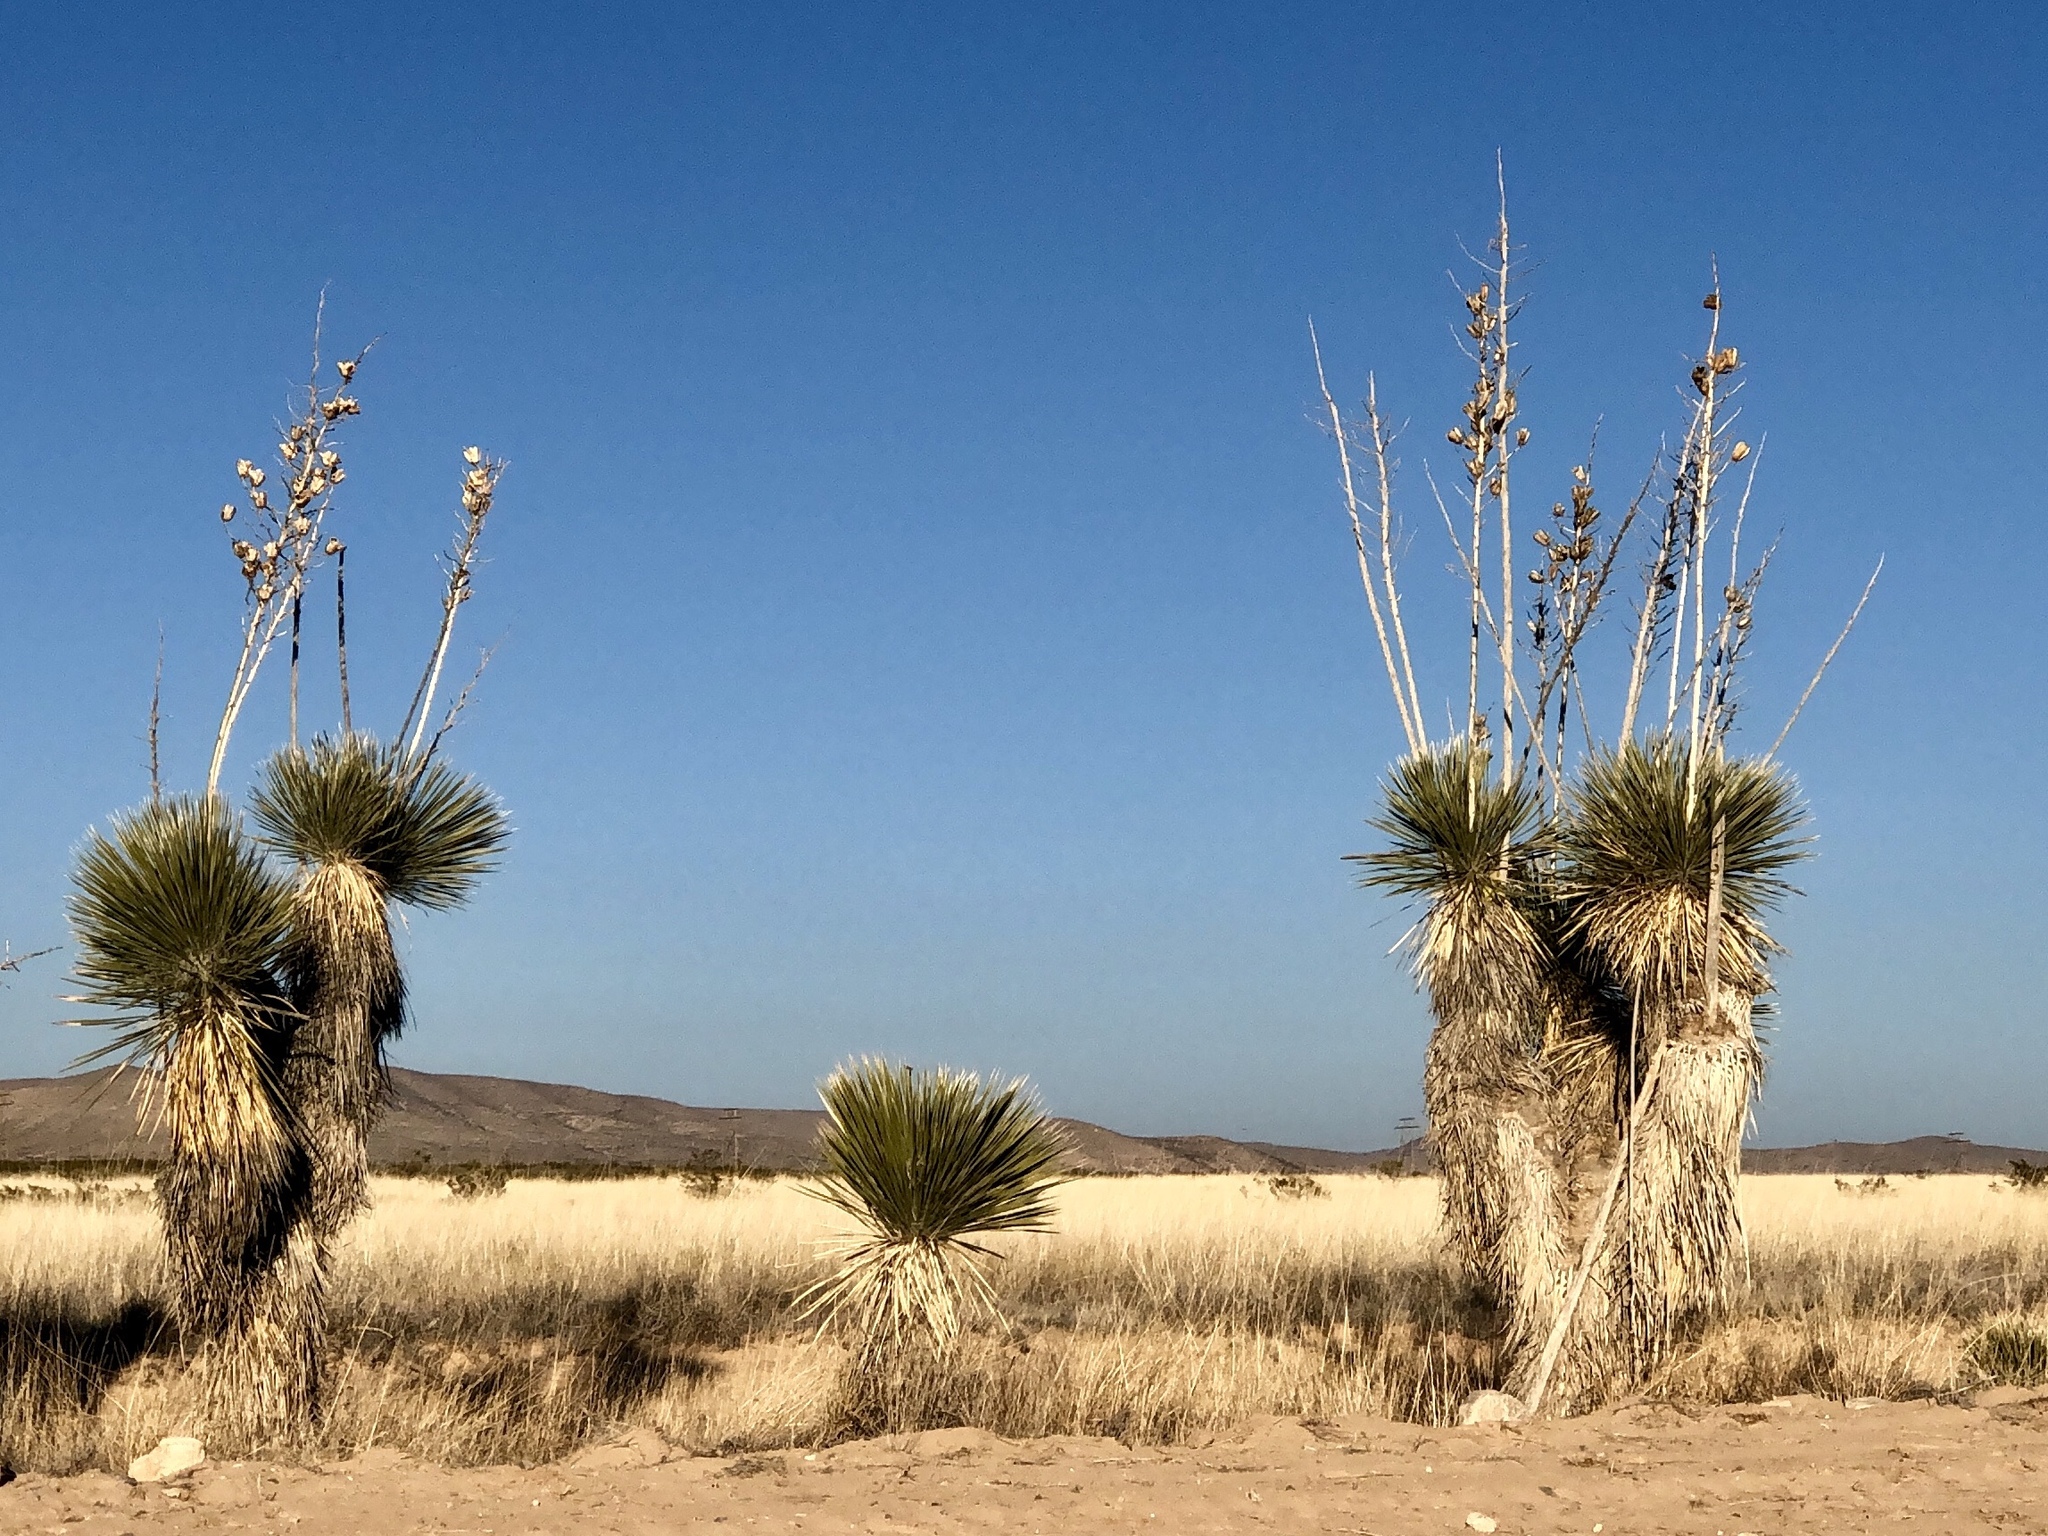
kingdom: Plantae
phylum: Tracheophyta
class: Liliopsida
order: Asparagales
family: Asparagaceae
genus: Yucca
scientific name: Yucca elata
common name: Palmella
